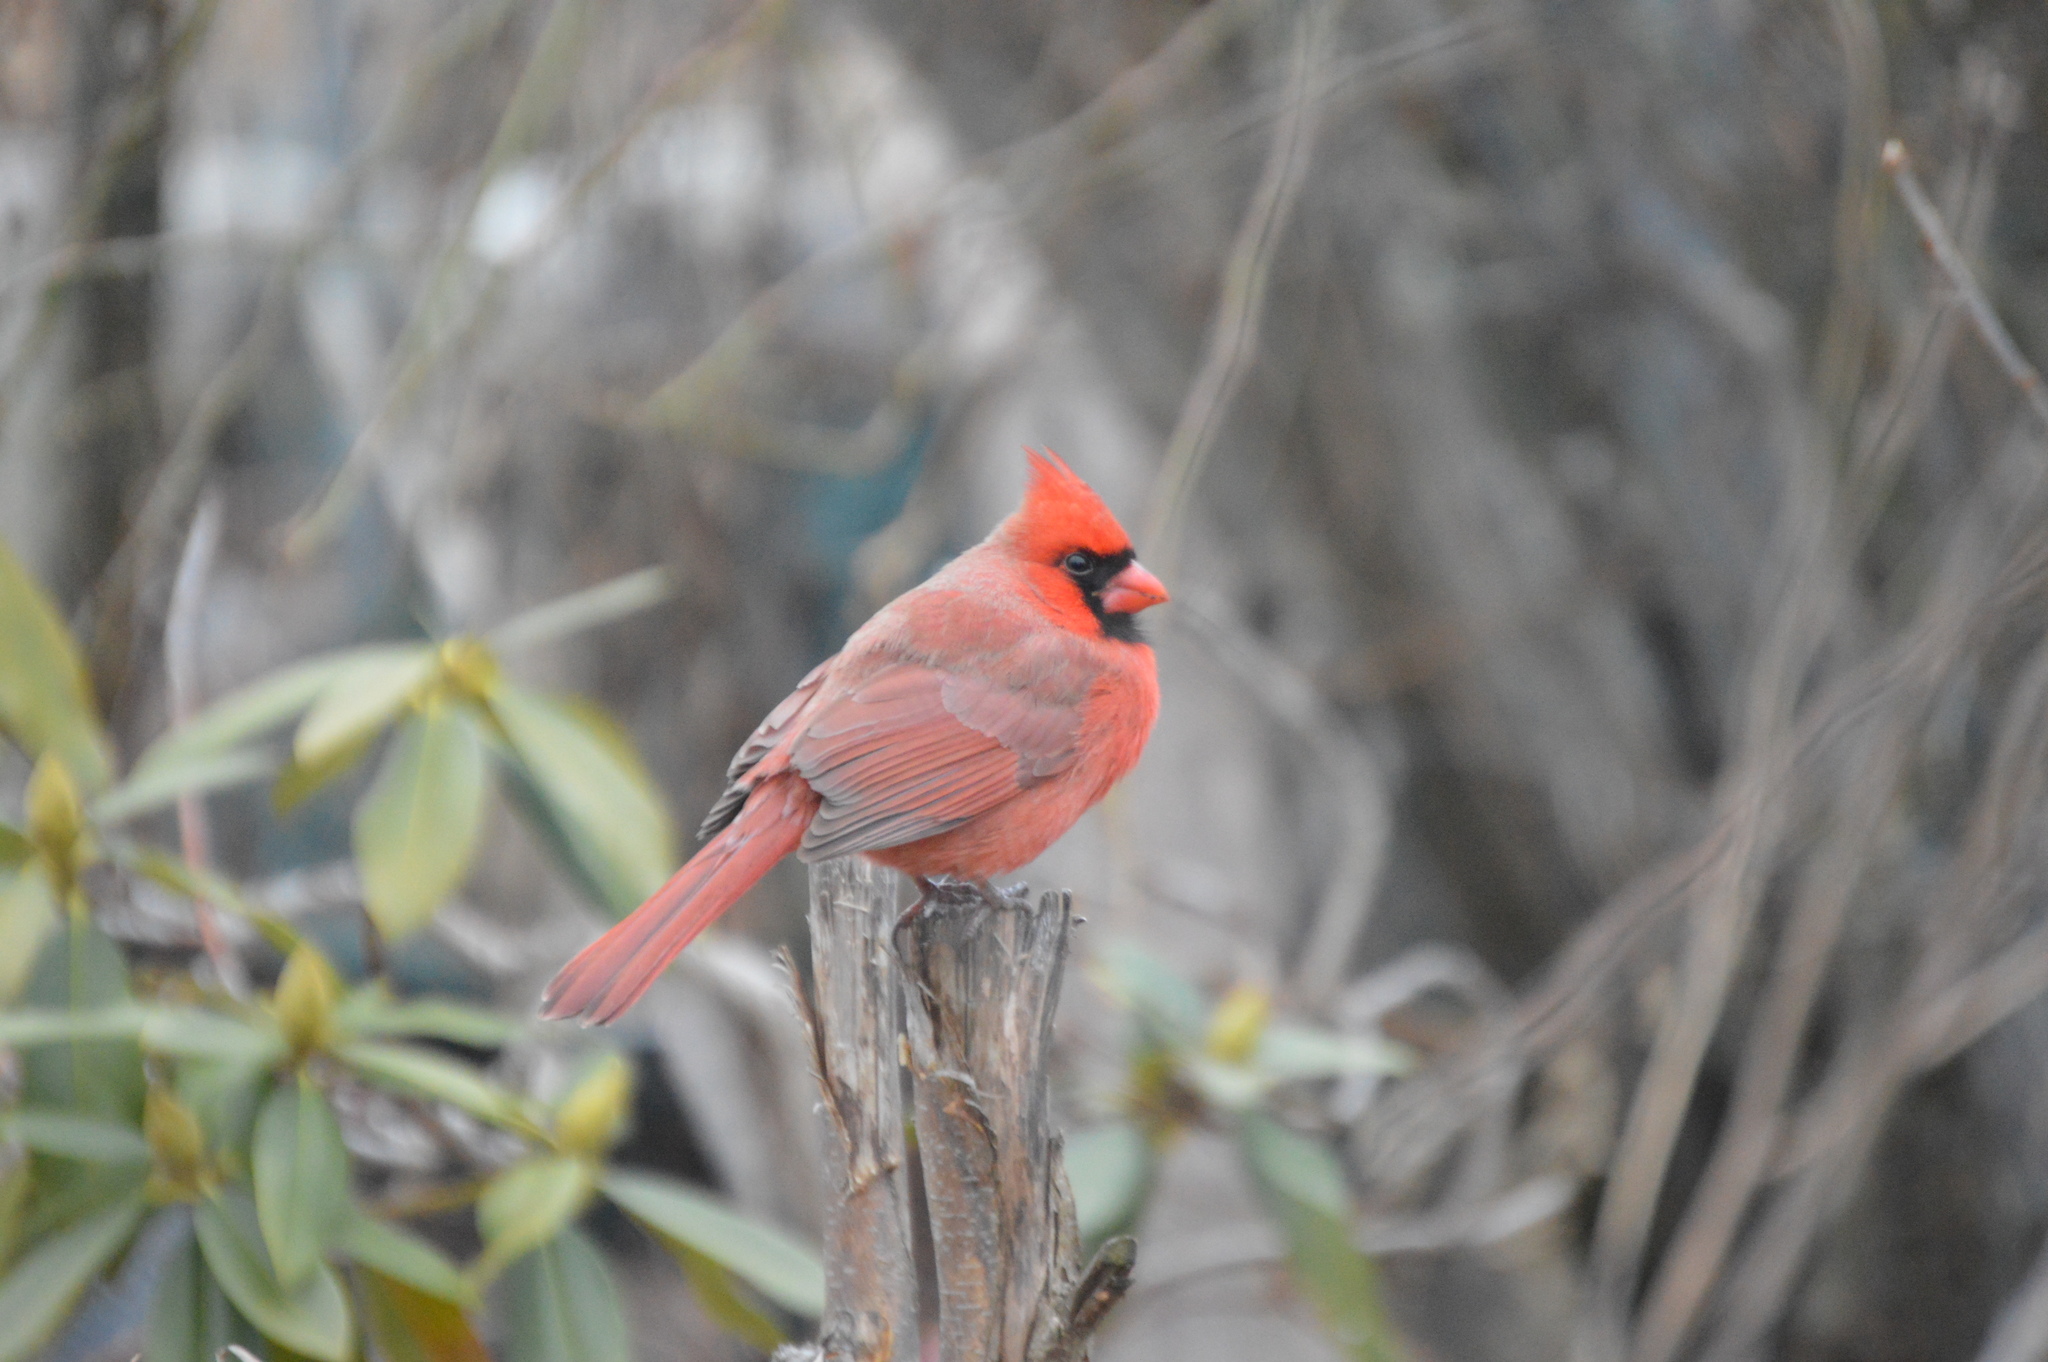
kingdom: Animalia
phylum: Chordata
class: Aves
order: Passeriformes
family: Cardinalidae
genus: Cardinalis
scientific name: Cardinalis cardinalis
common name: Northern cardinal
